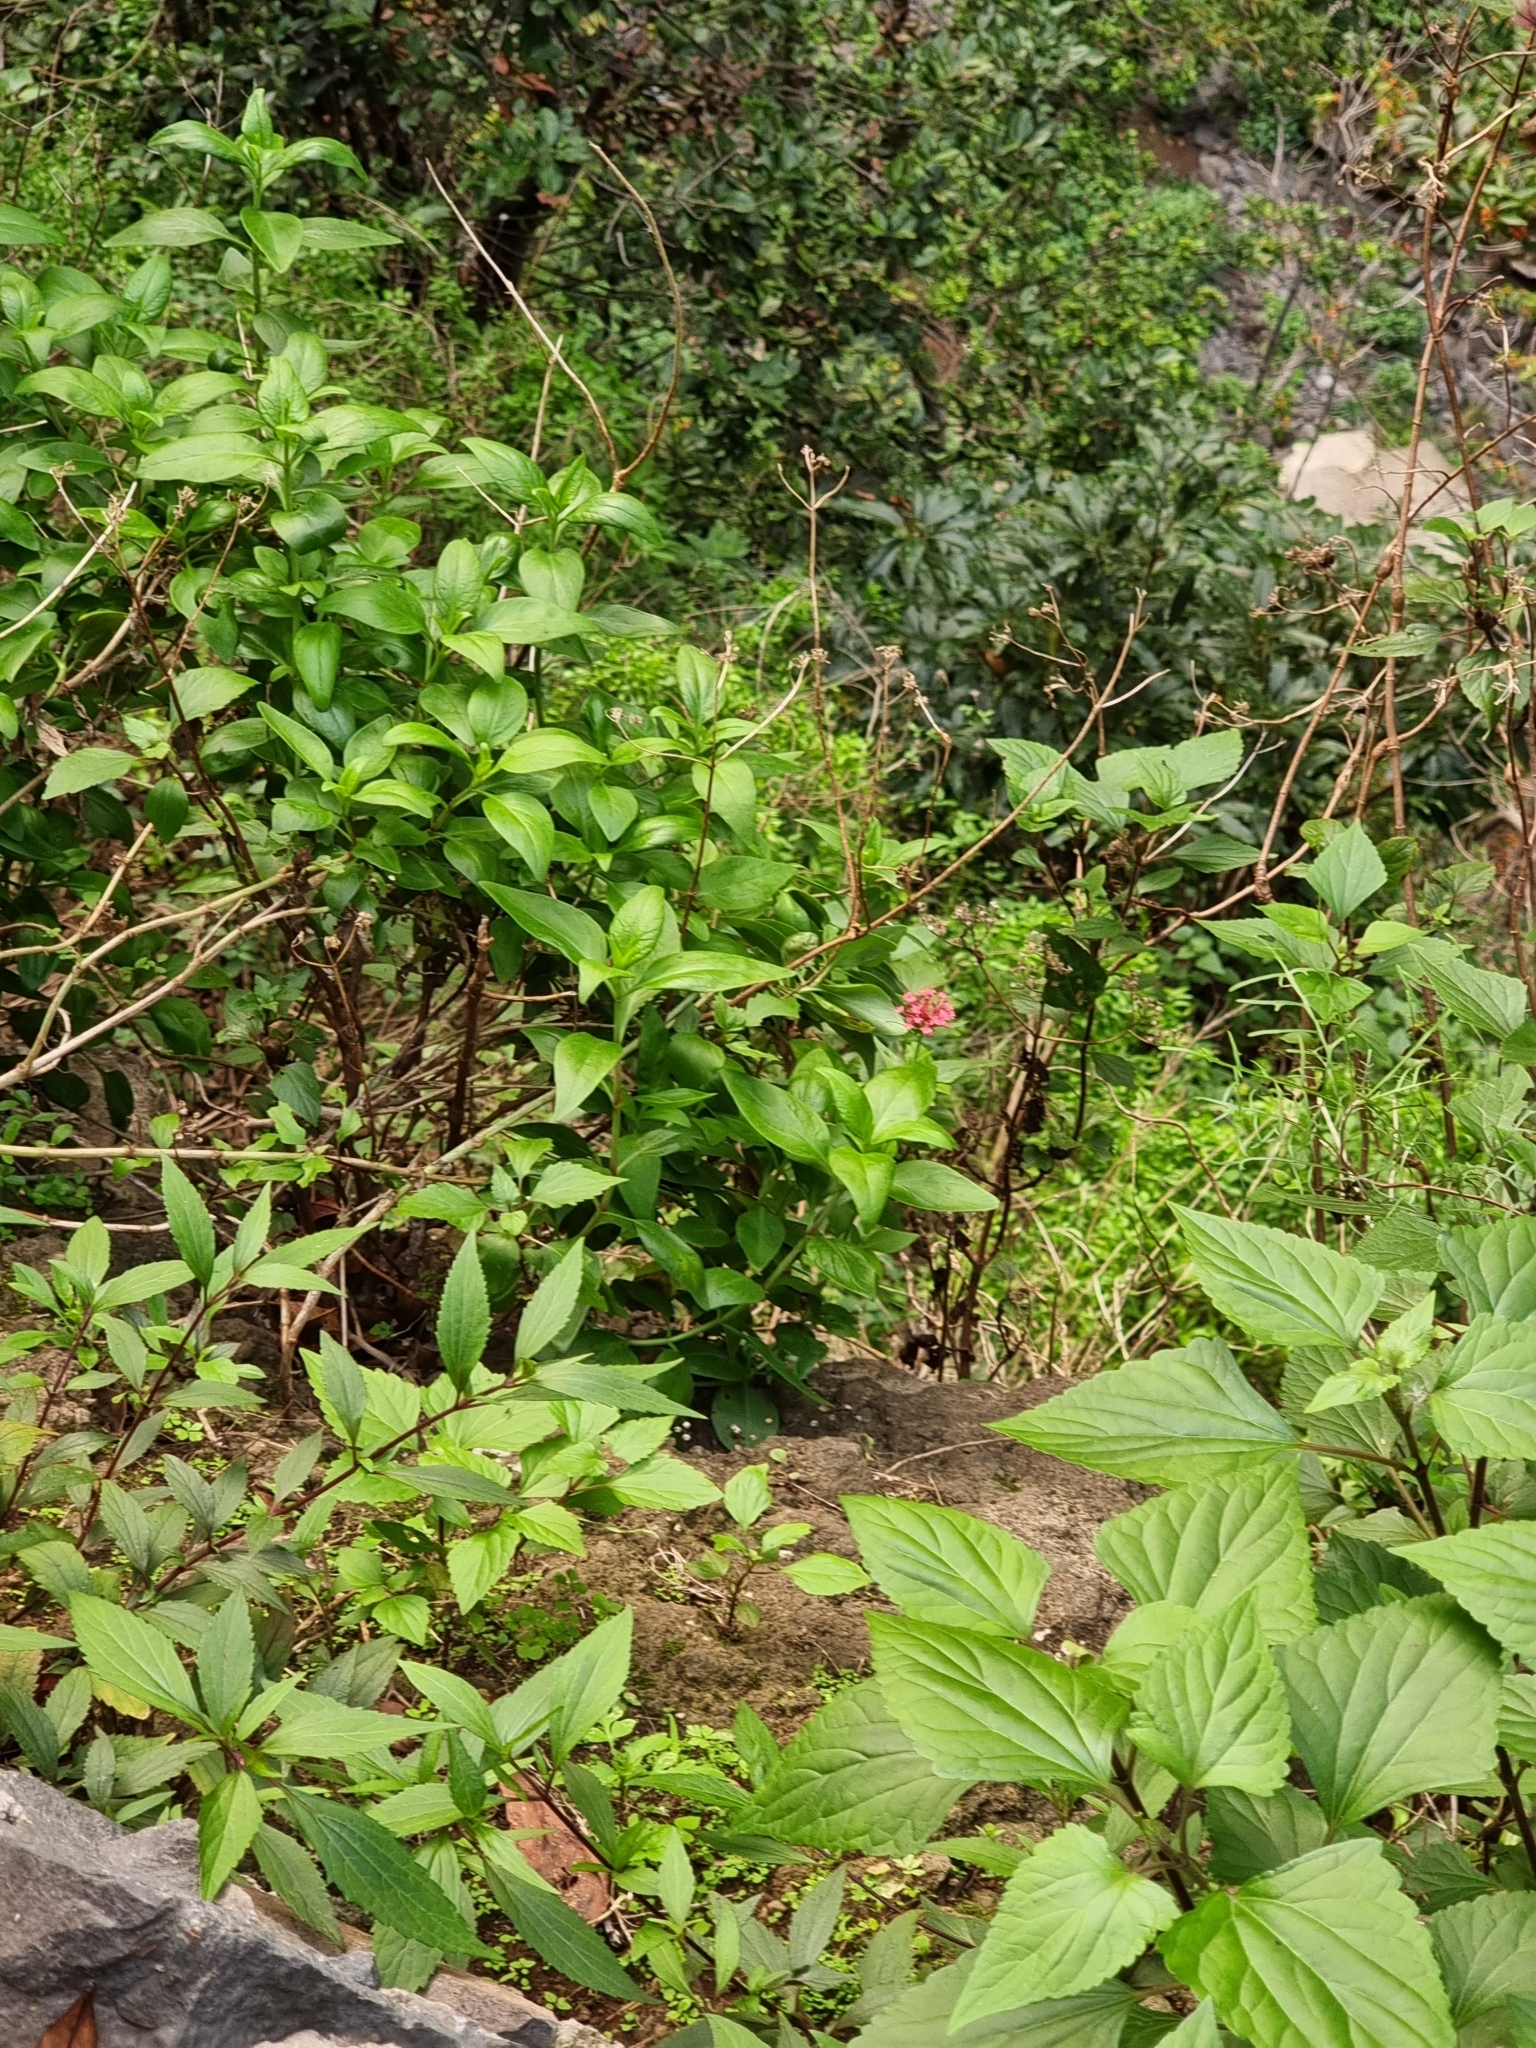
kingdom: Plantae
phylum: Tracheophyta
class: Magnoliopsida
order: Dipsacales
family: Caprifoliaceae
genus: Centranthus
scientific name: Centranthus ruber
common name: Red valerian
